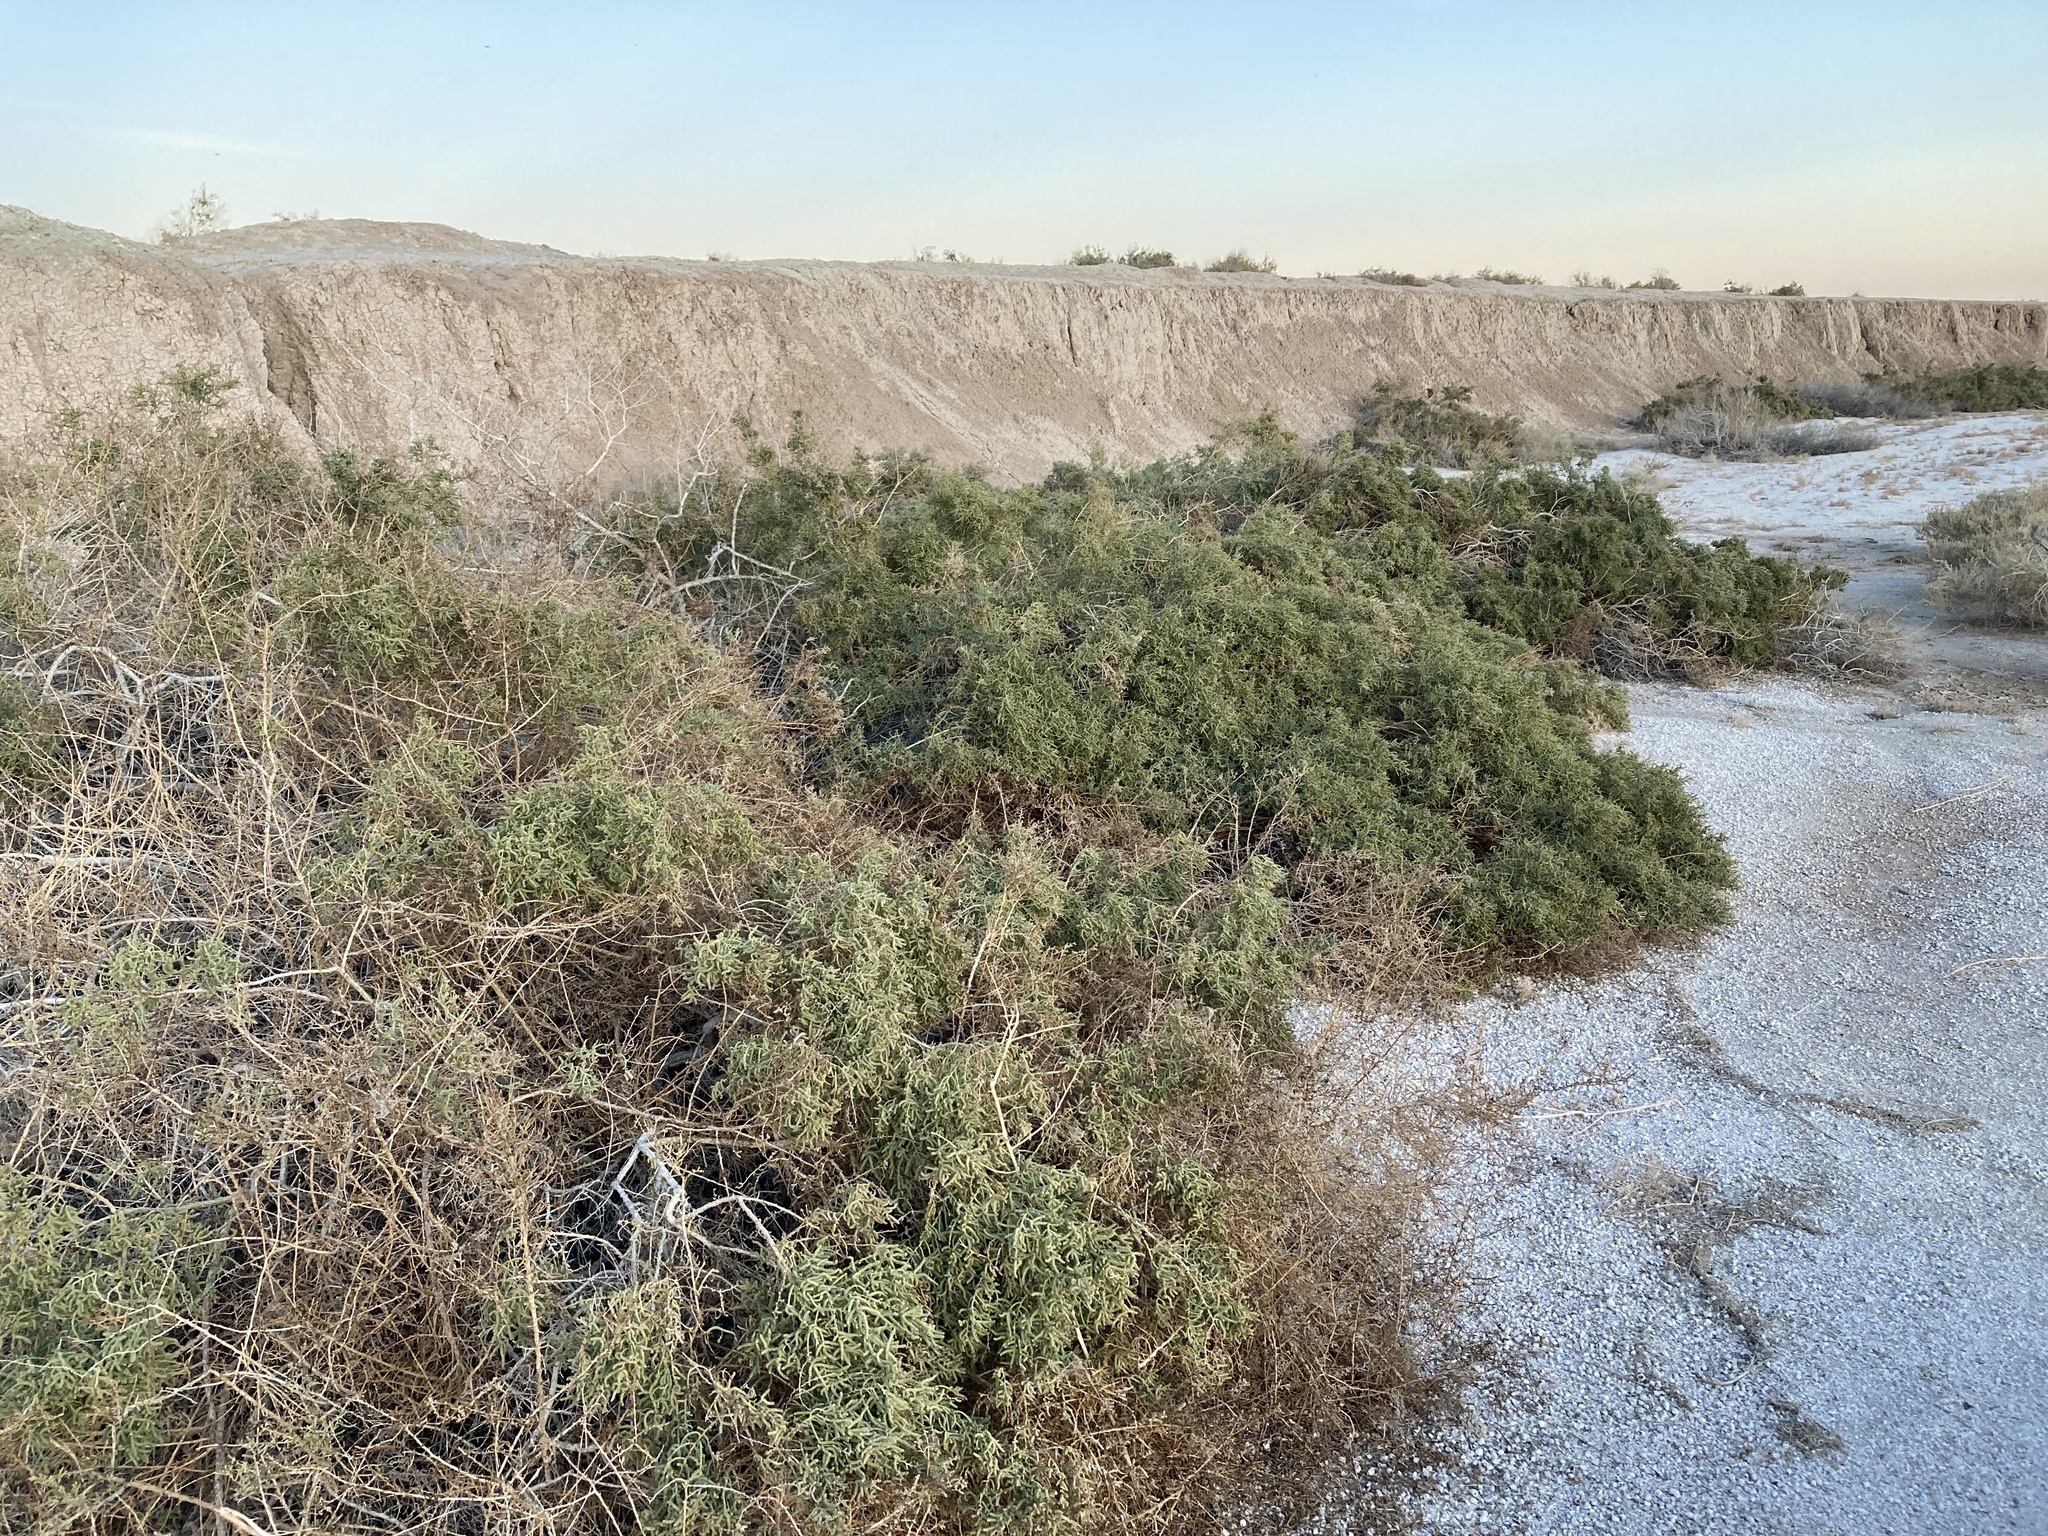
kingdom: Plantae
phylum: Tracheophyta
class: Magnoliopsida
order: Caryophyllales
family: Amaranthaceae
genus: Allenrolfea
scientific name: Allenrolfea occidentalis
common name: Iodine-bush
